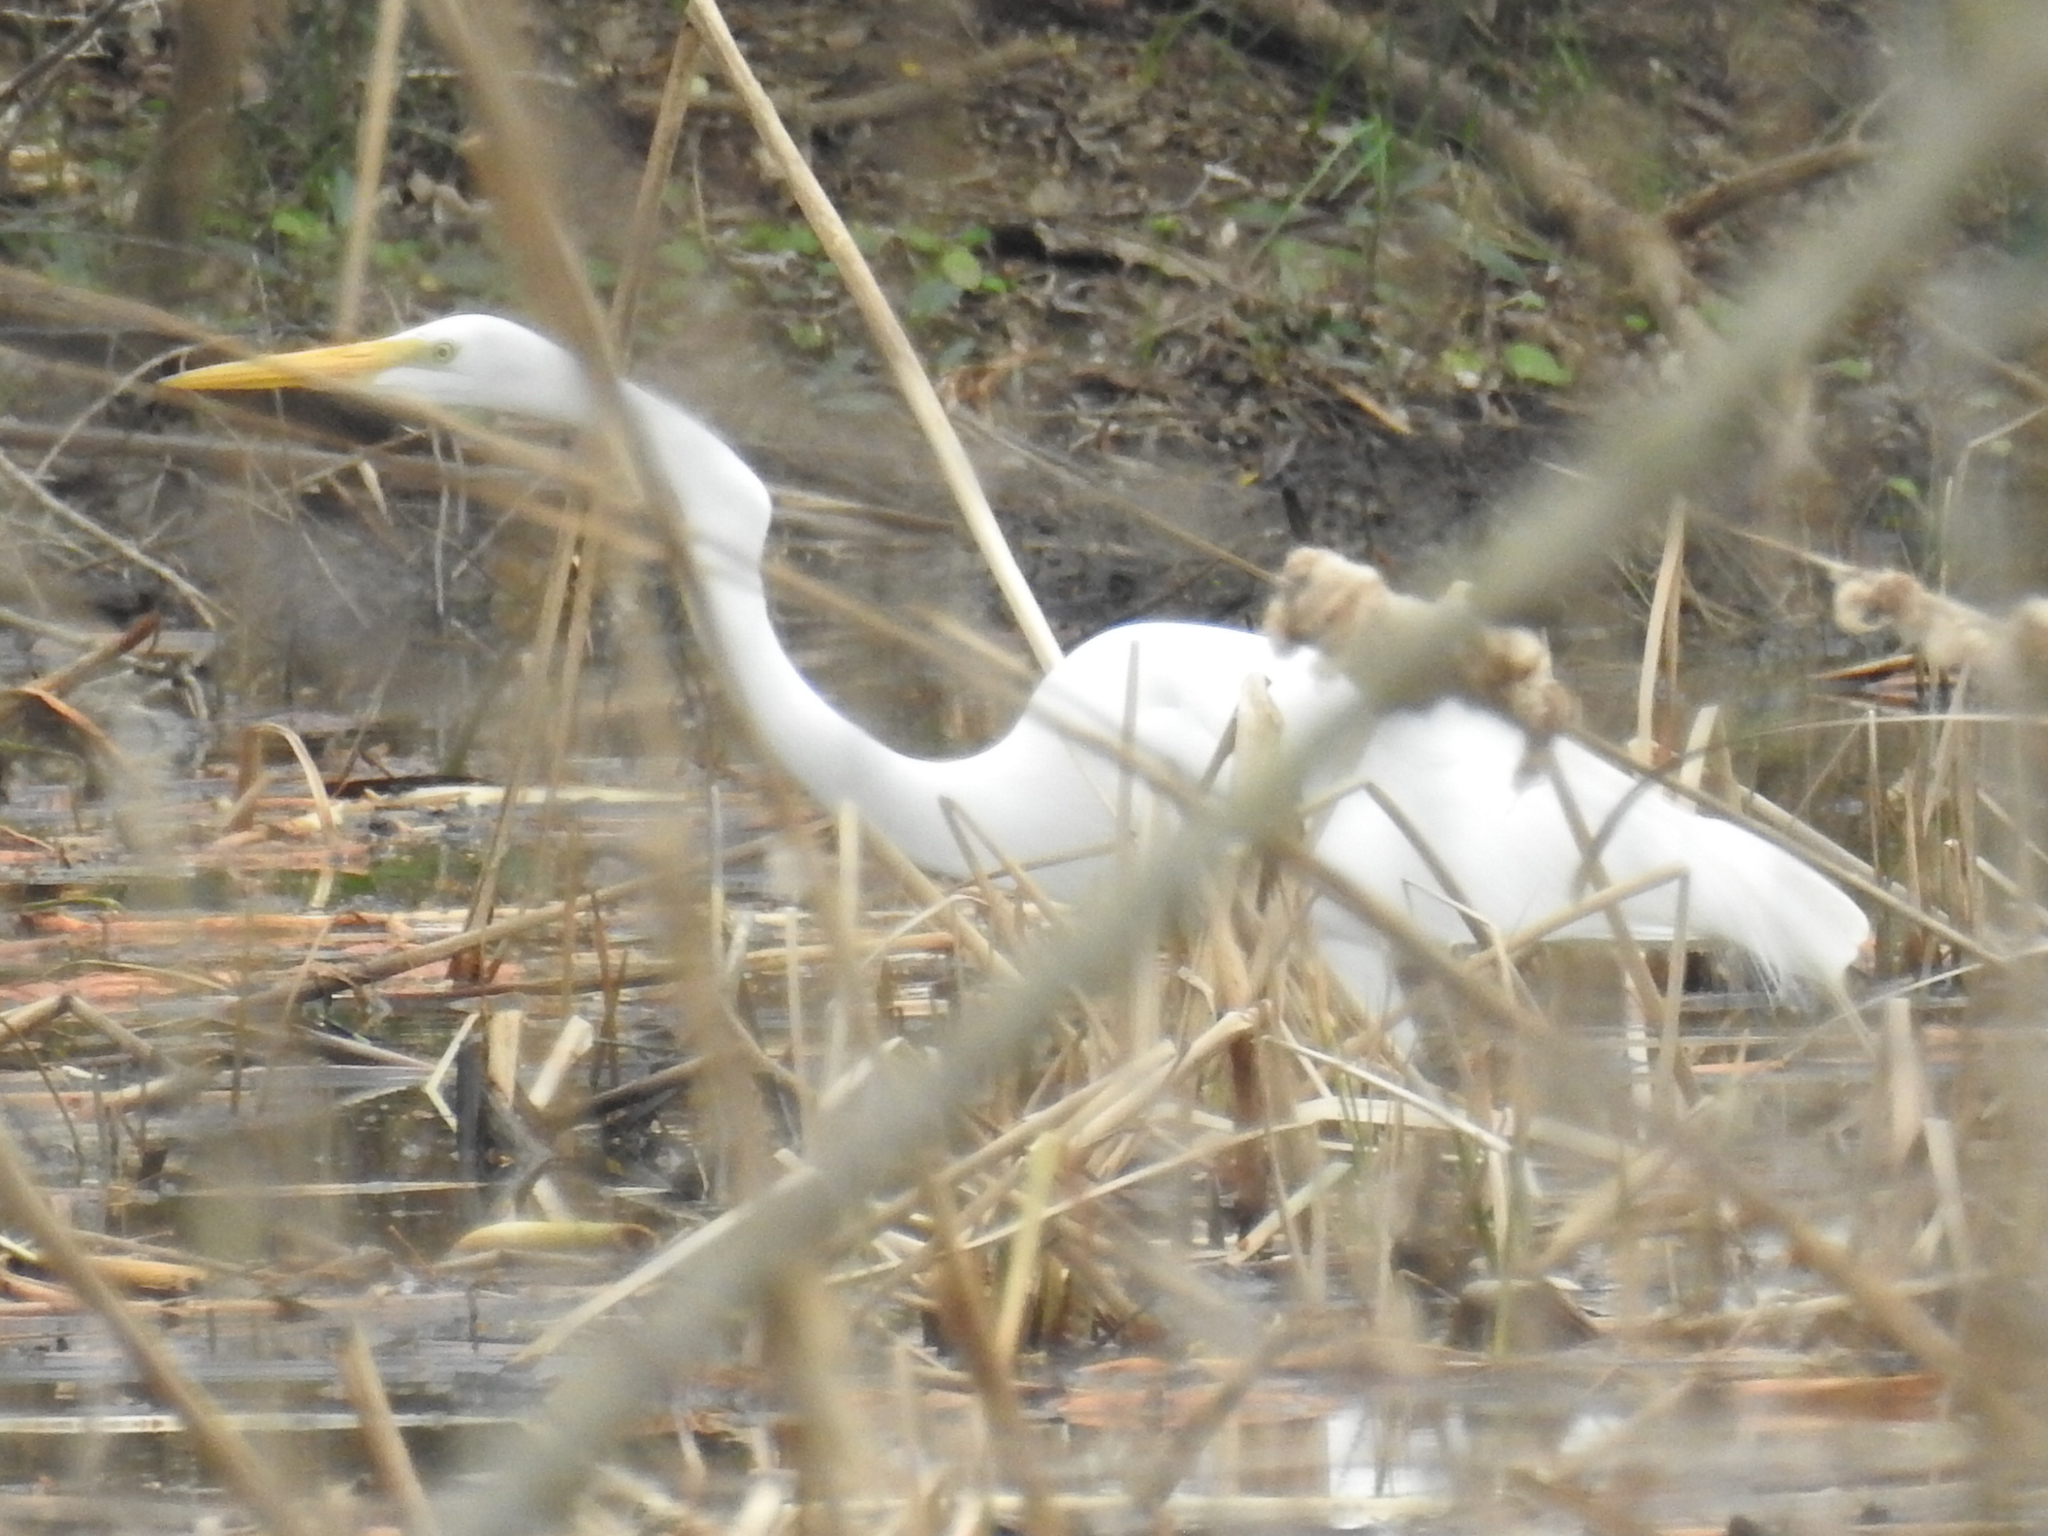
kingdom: Animalia
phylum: Chordata
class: Aves
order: Pelecaniformes
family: Ardeidae
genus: Ardea
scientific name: Ardea alba
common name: Great egret
